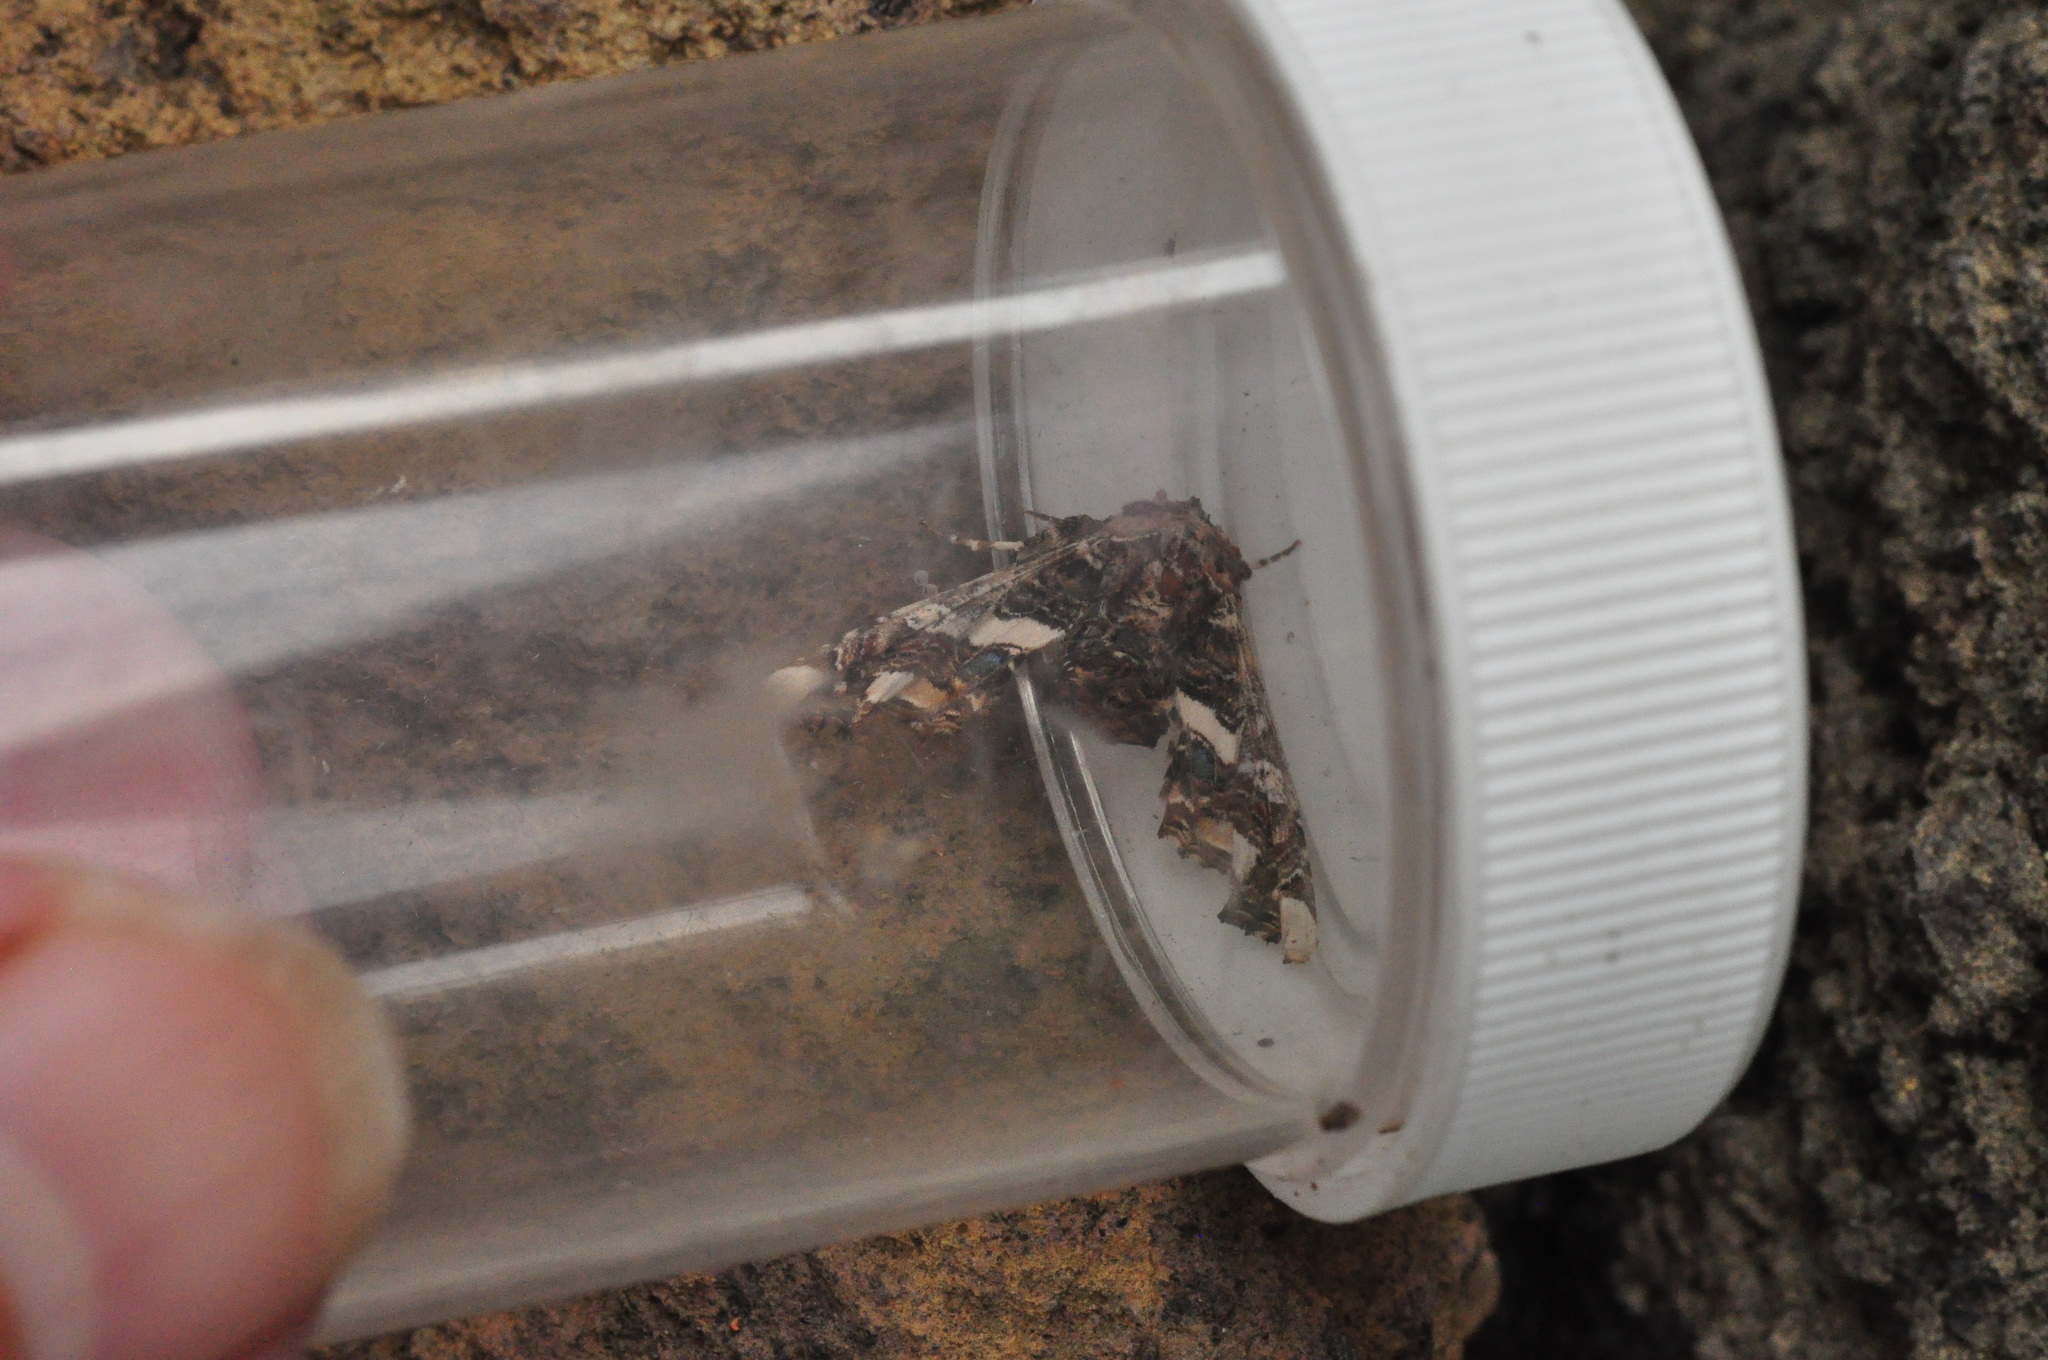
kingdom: Animalia
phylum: Arthropoda
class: Insecta
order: Lepidoptera
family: Euteliidae
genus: Eutelia
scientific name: Eutelia adulatrix
